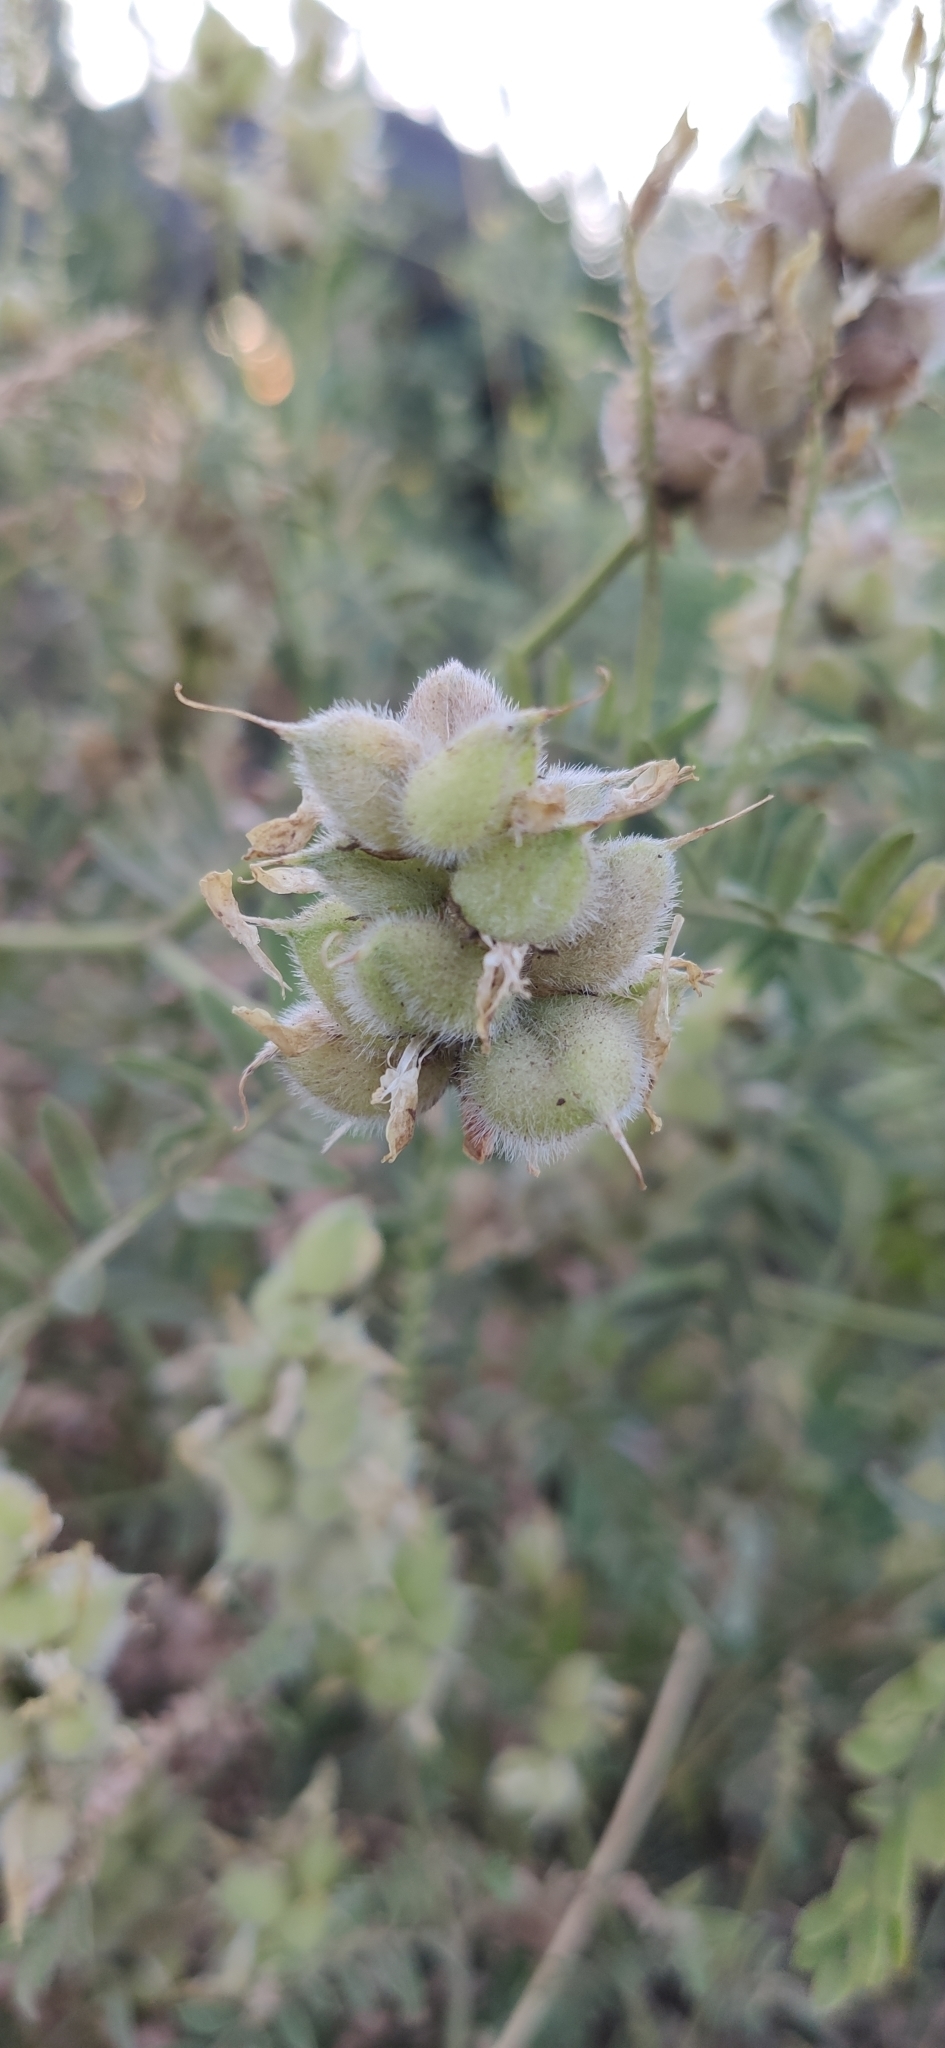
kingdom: Plantae
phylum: Tracheophyta
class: Magnoliopsida
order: Fabales
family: Fabaceae
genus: Astragalus
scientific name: Astragalus cicer
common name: Chick-pea milk-vetch
